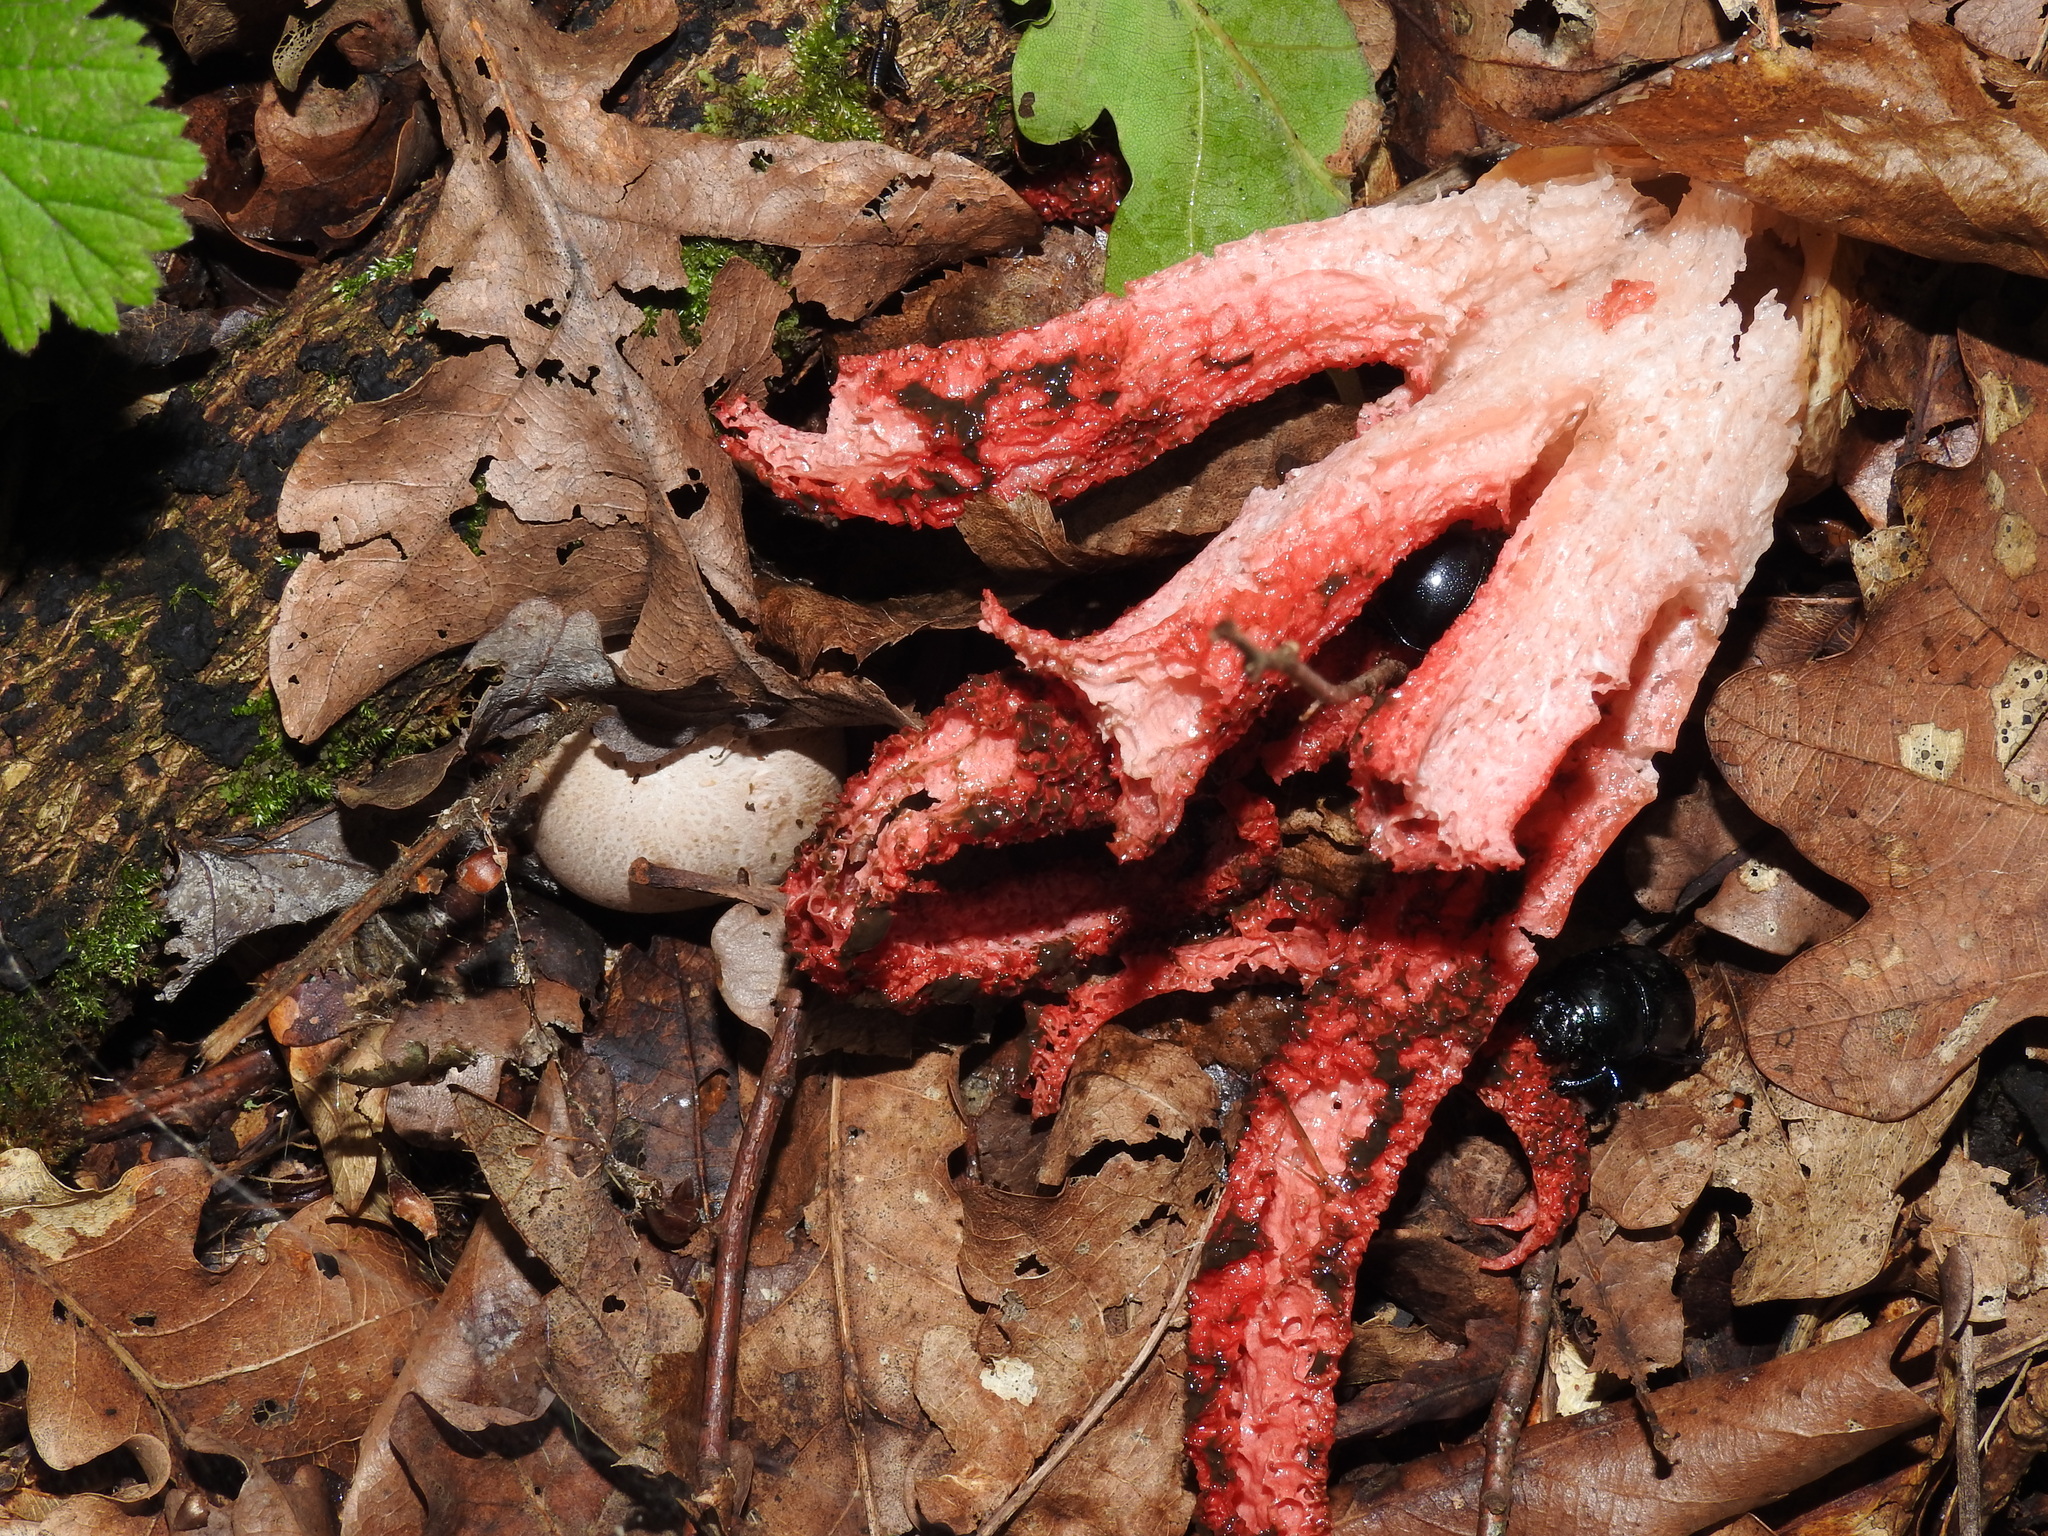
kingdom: Fungi
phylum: Basidiomycota
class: Agaricomycetes
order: Phallales
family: Phallaceae
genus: Clathrus
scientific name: Clathrus archeri
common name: Devil's fingers
